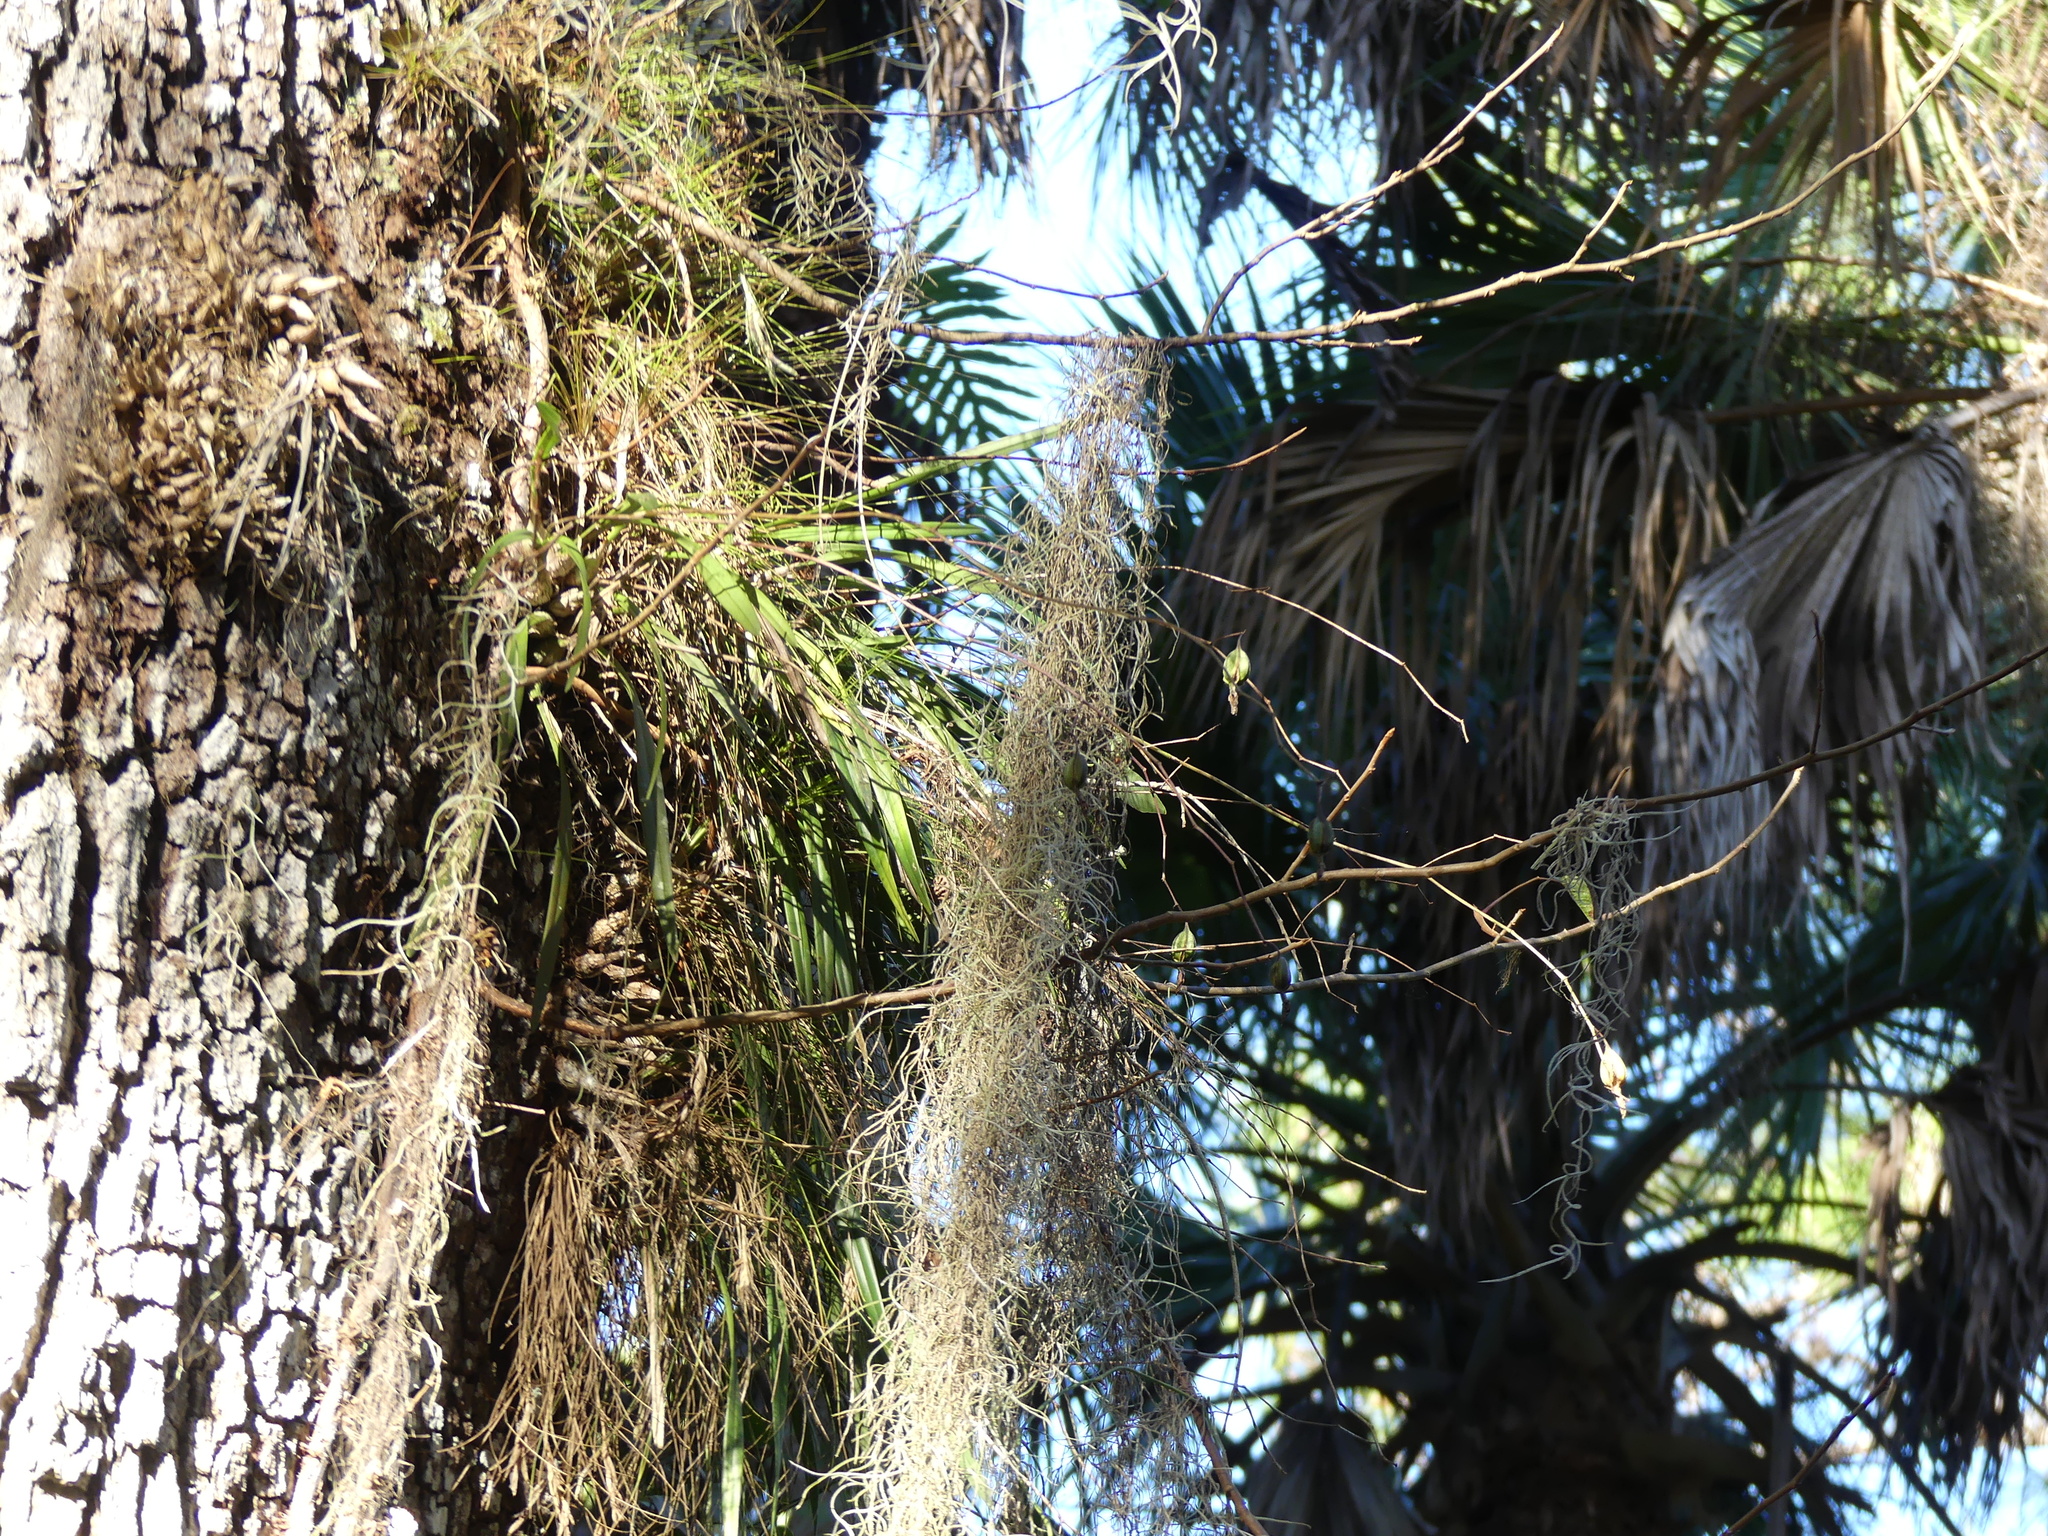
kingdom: Plantae
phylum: Tracheophyta
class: Liliopsida
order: Asparagales
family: Orchidaceae
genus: Encyclia
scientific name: Encyclia tampensis
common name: Florida butterfly orchid
